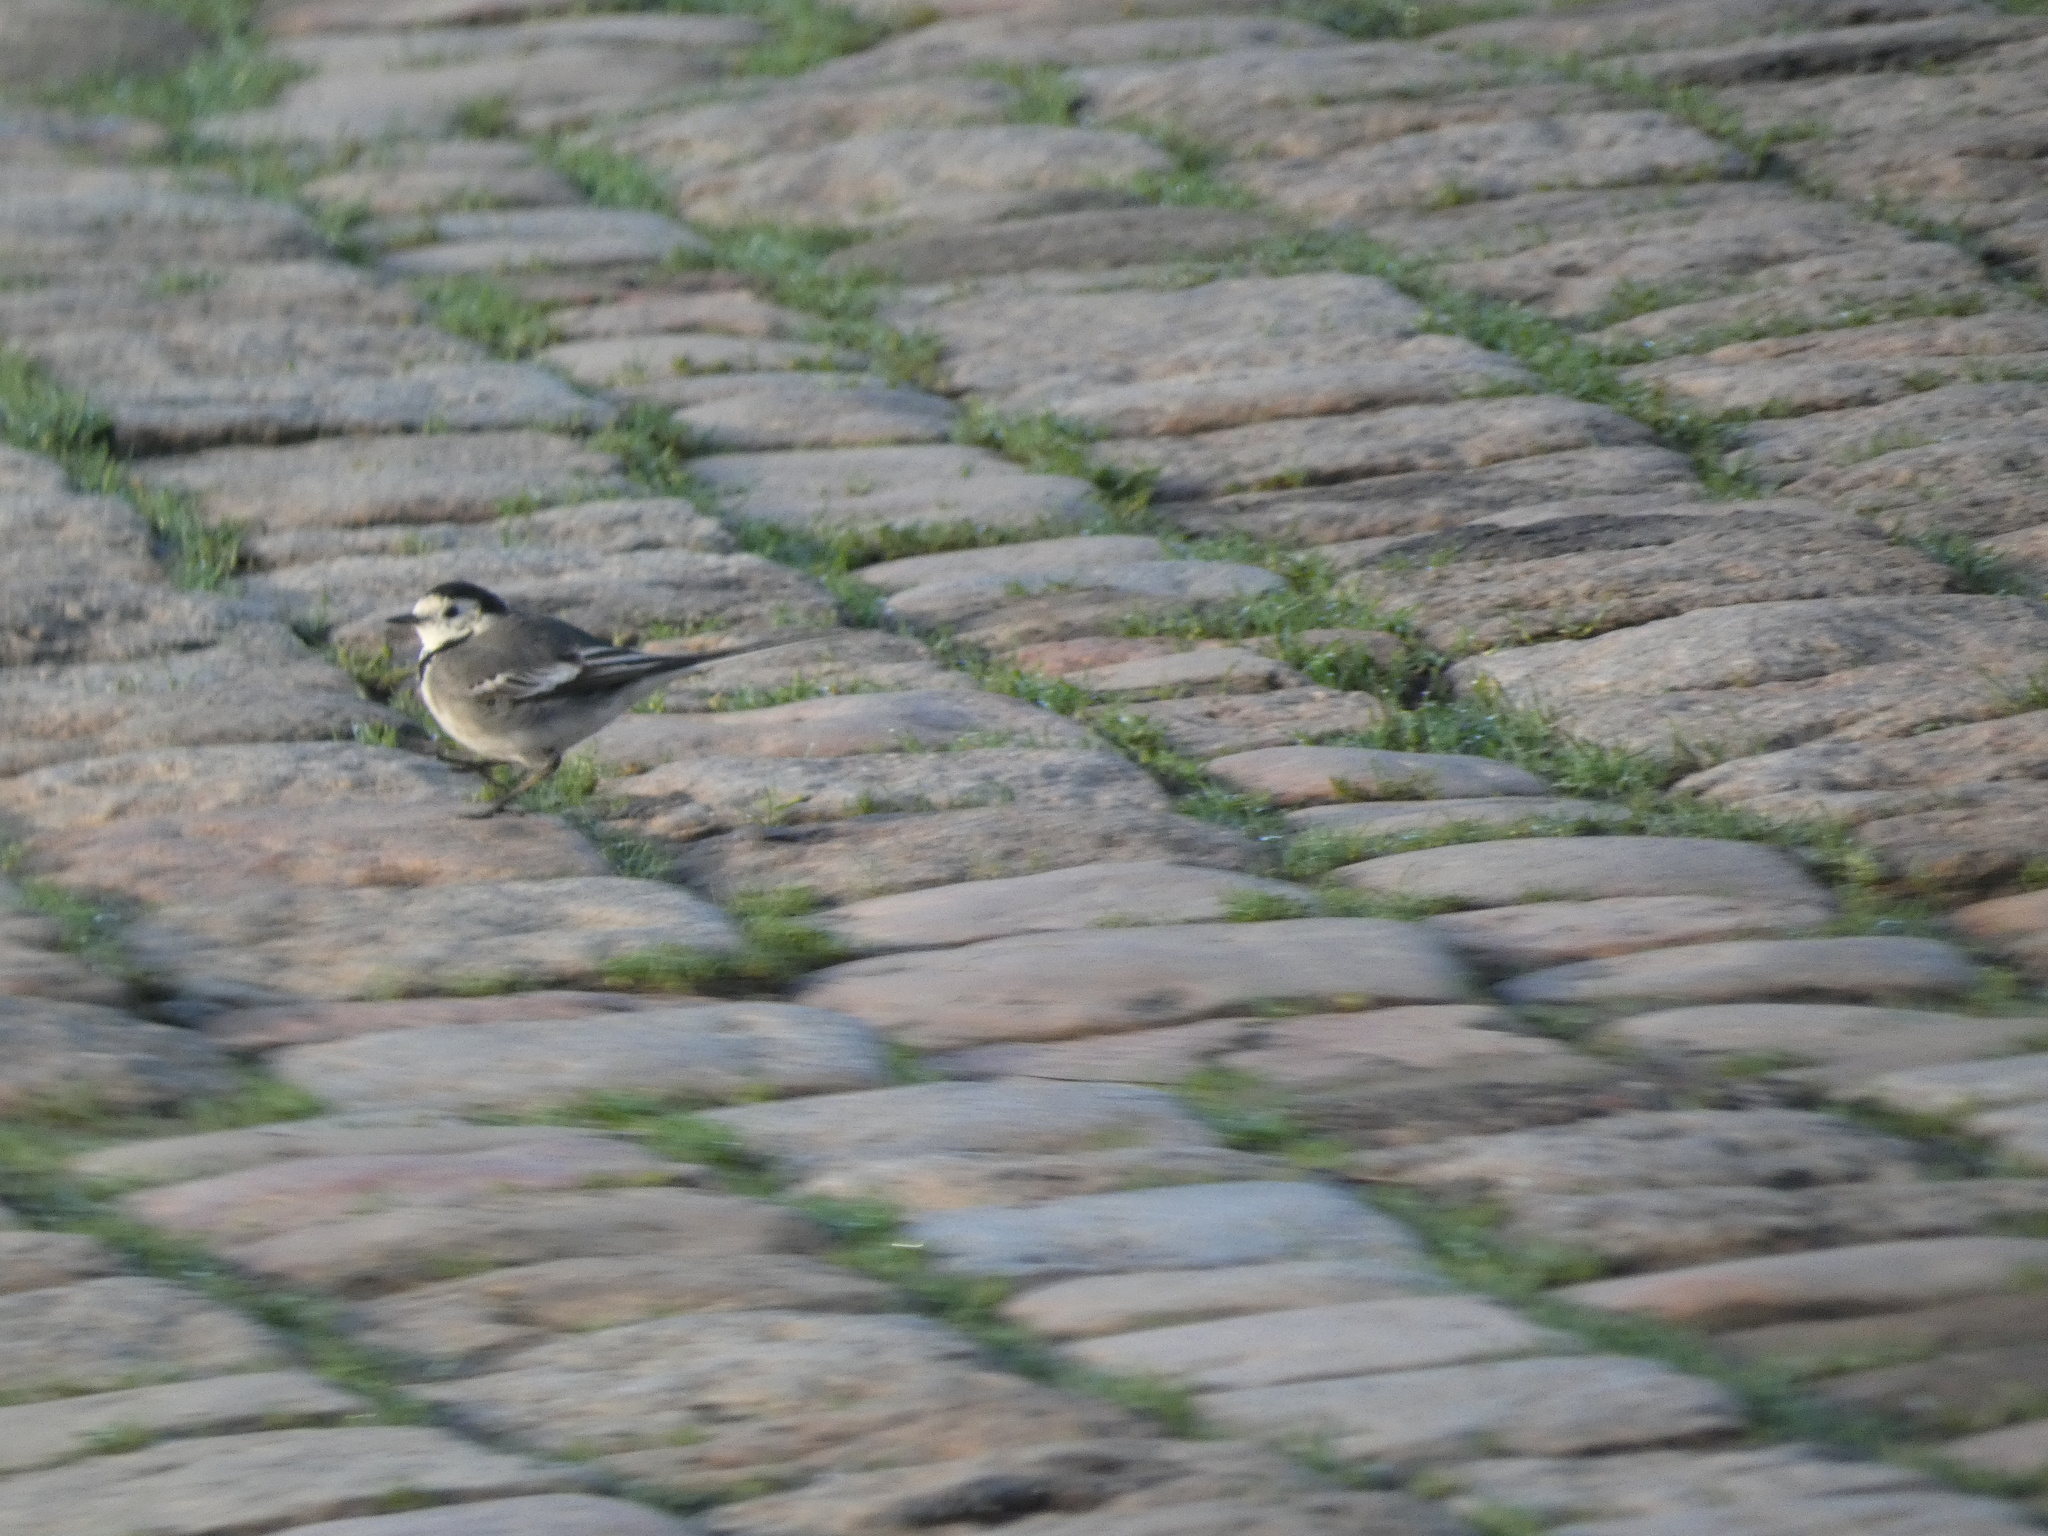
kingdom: Animalia
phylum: Chordata
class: Aves
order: Passeriformes
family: Motacillidae
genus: Motacilla
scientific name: Motacilla alba
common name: White wagtail
